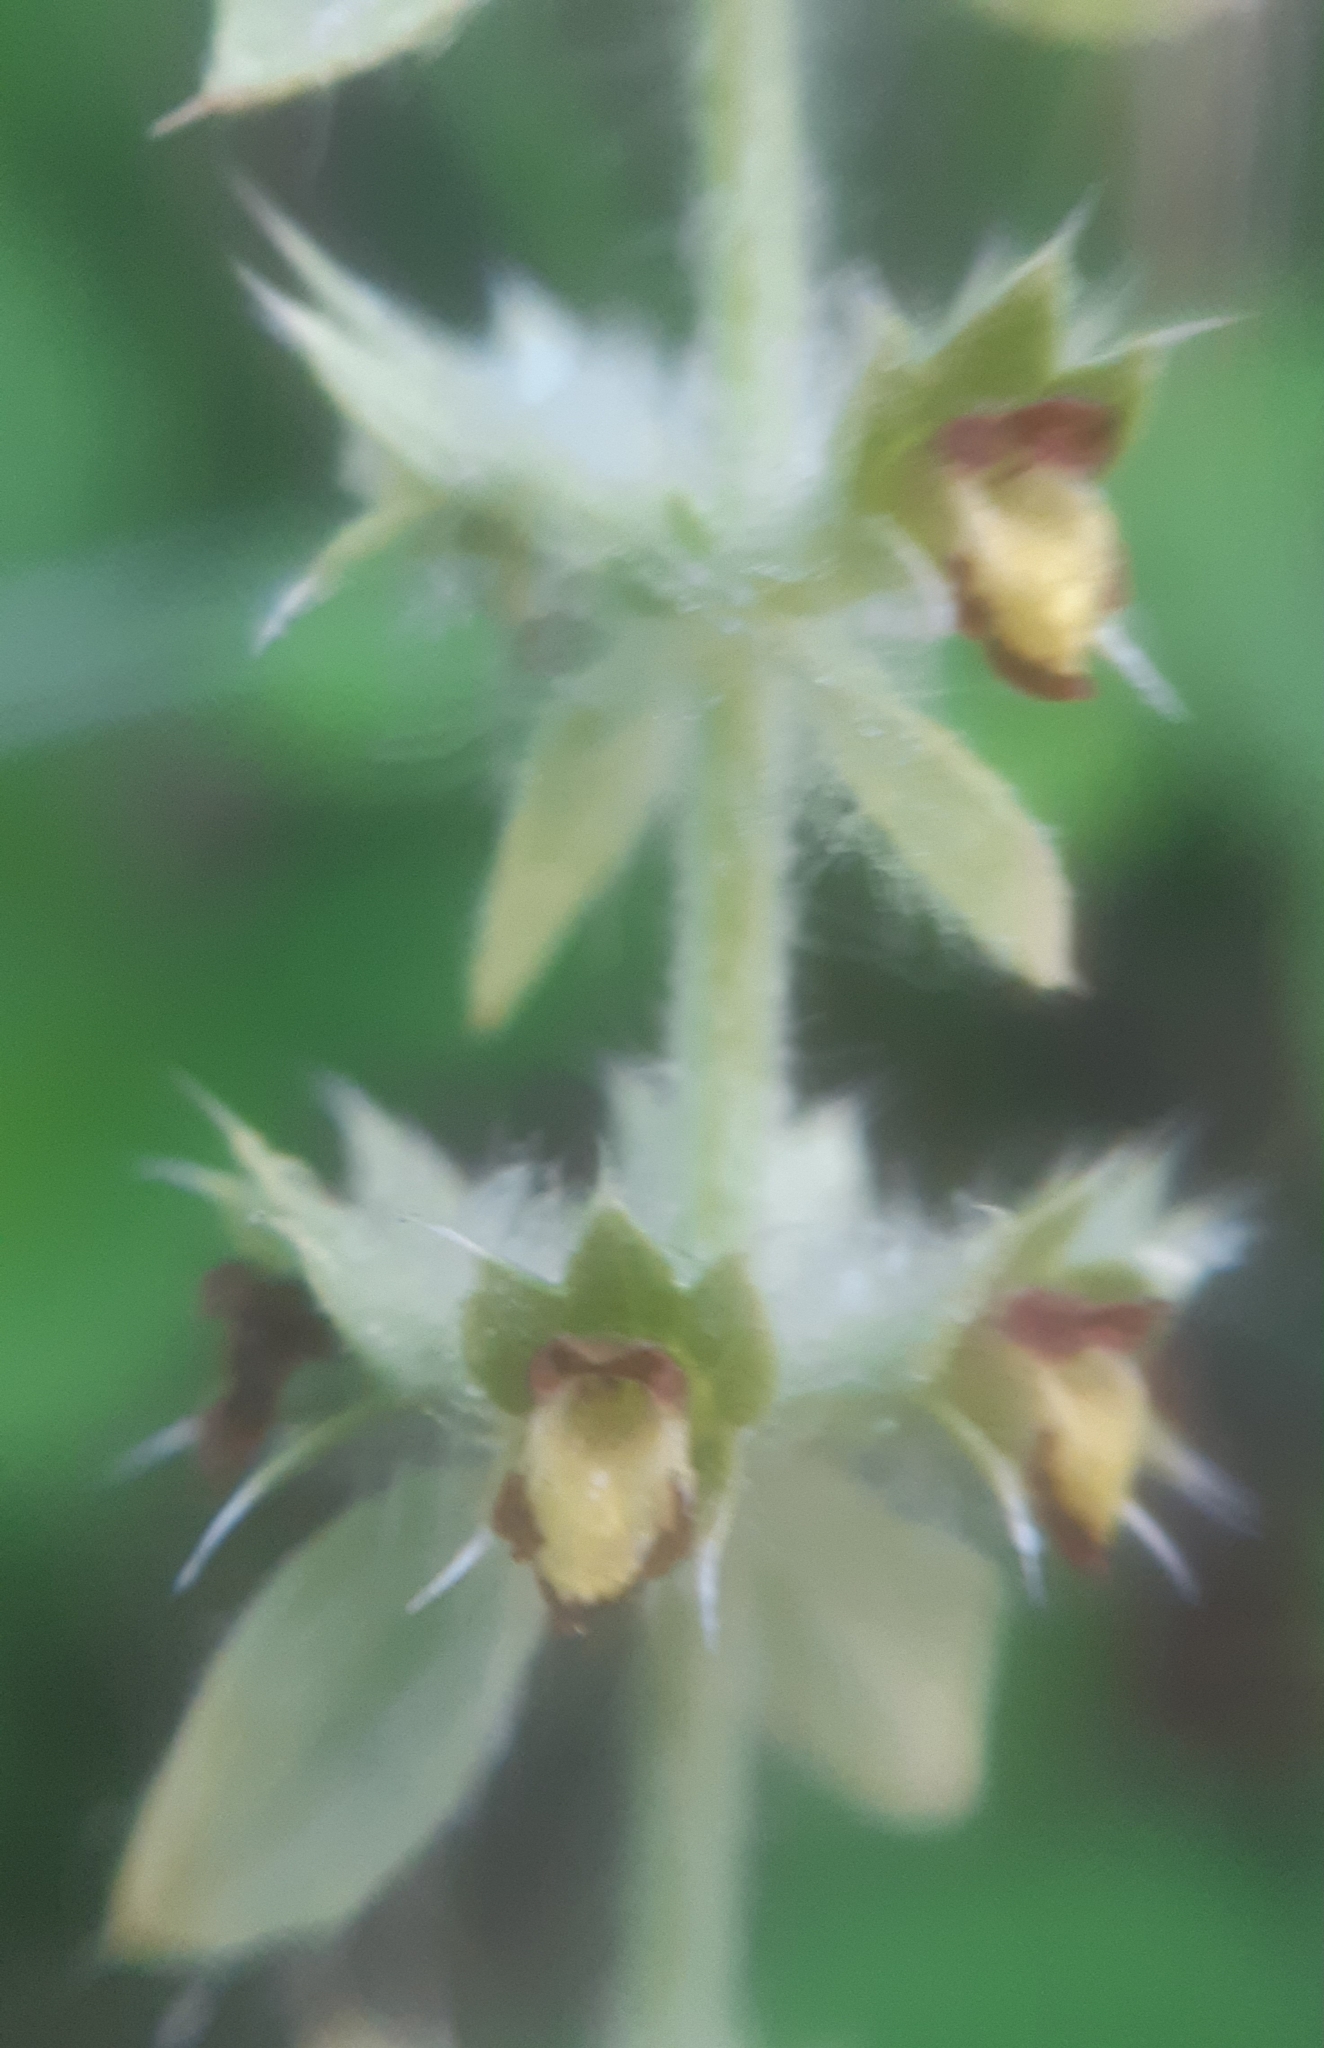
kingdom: Plantae
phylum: Tracheophyta
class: Magnoliopsida
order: Lamiales
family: Lamiaceae
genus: Sideritis
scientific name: Sideritis montana
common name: Mountain ironwort
